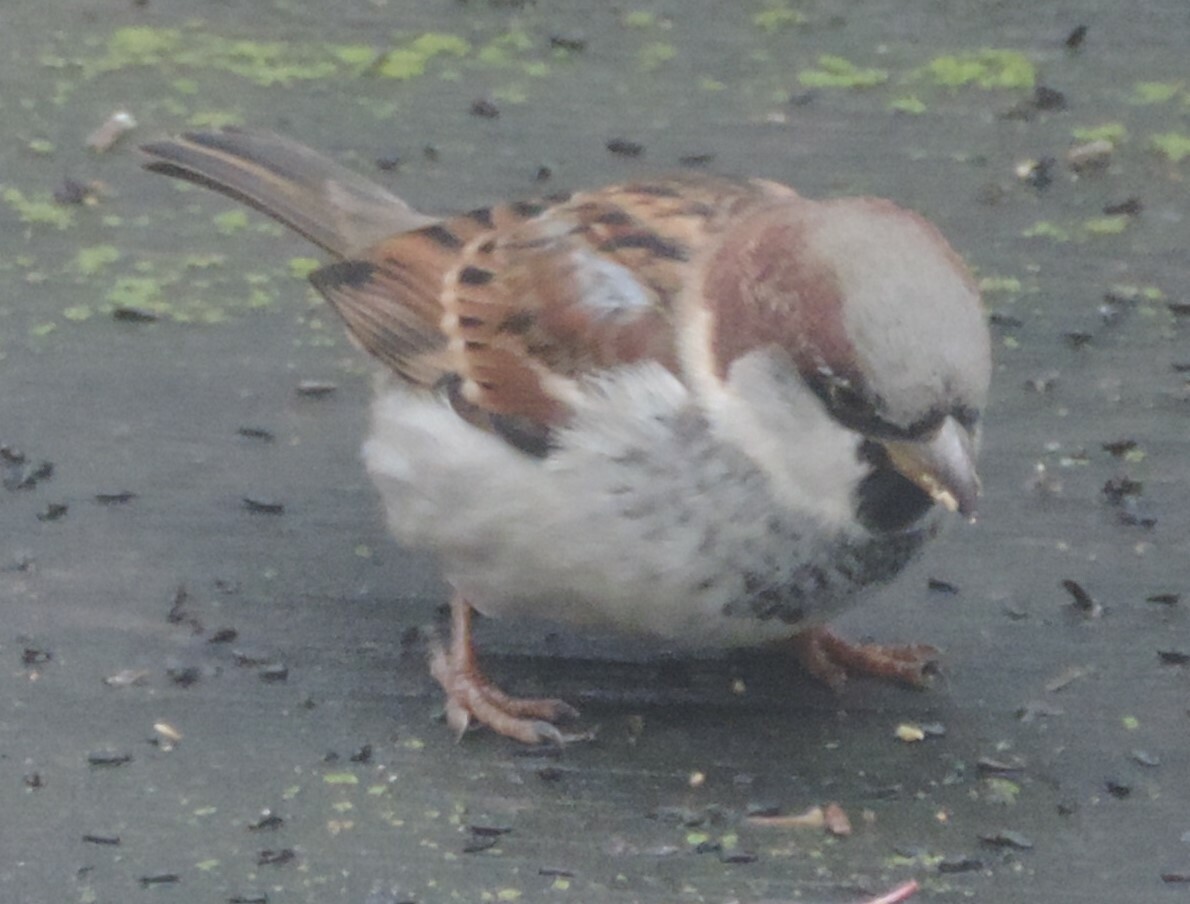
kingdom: Animalia
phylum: Chordata
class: Aves
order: Passeriformes
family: Passeridae
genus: Passer
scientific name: Passer domesticus
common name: House sparrow
